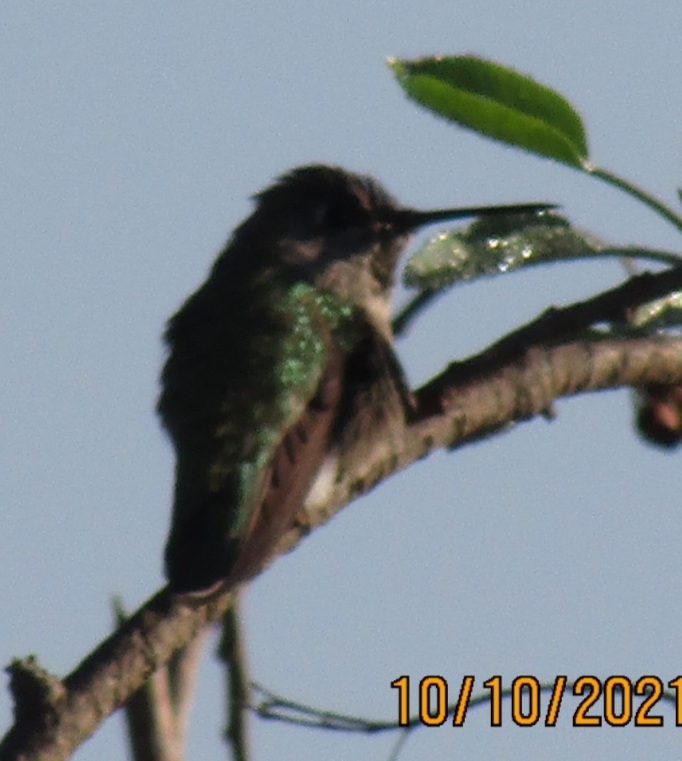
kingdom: Animalia
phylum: Chordata
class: Aves
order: Apodiformes
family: Trochilidae
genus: Calypte
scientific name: Calypte anna
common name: Anna's hummingbird
